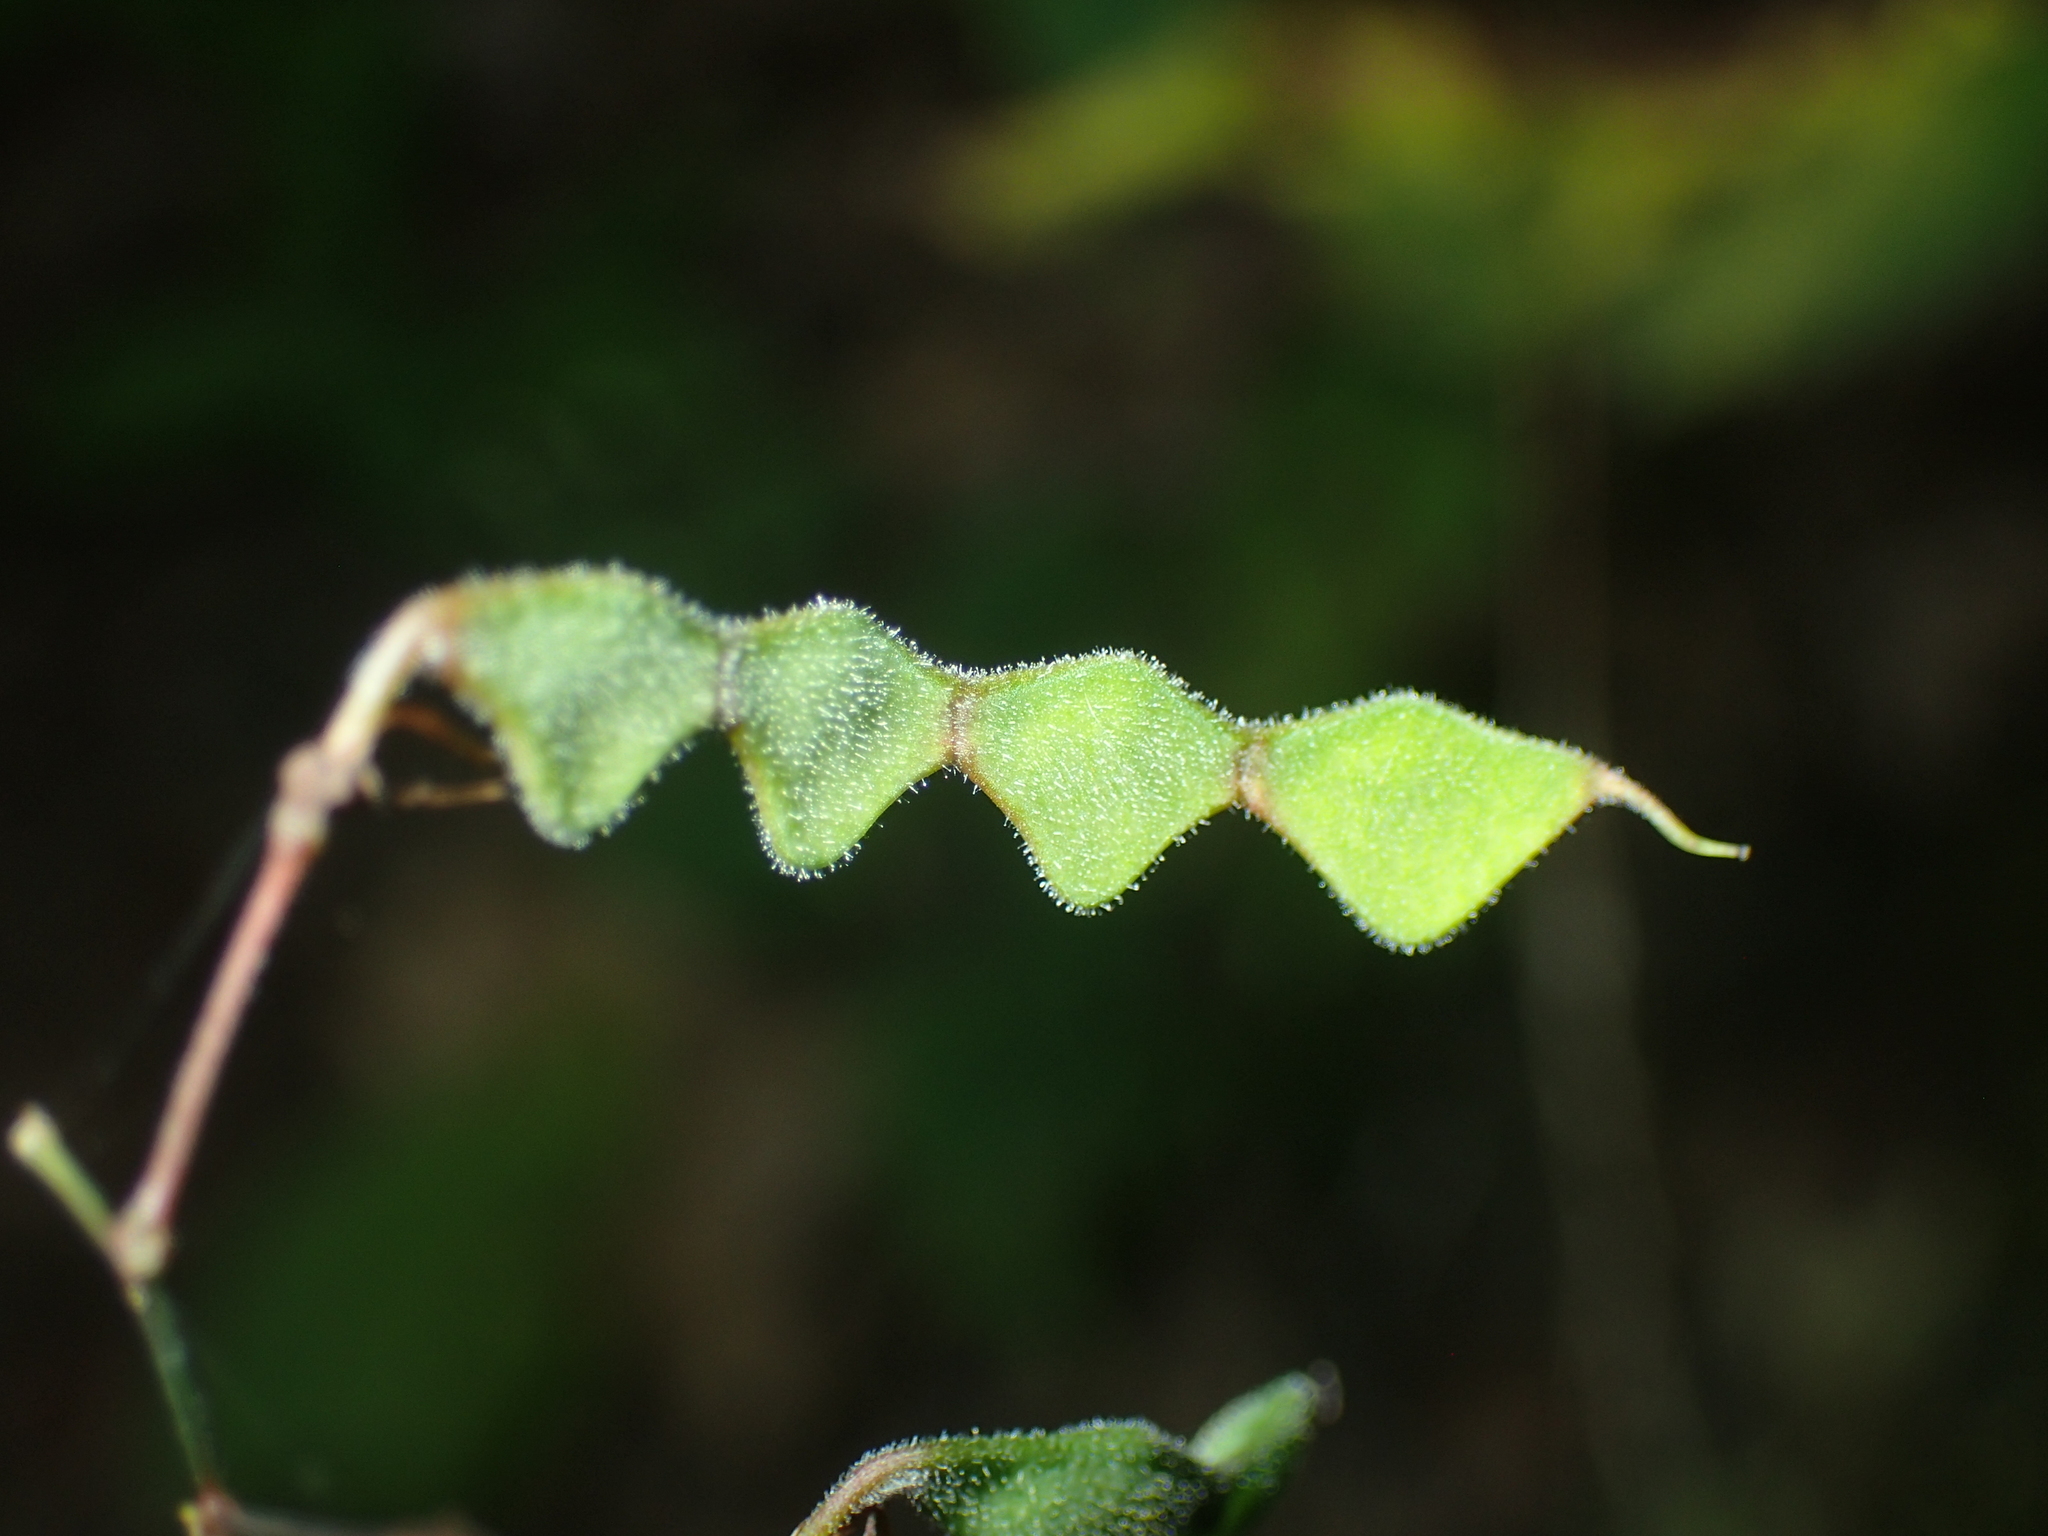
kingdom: Plantae
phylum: Tracheophyta
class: Magnoliopsida
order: Fabales
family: Fabaceae
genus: Desmodium
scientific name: Desmodium paniculatum
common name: Panicled tick-clover
